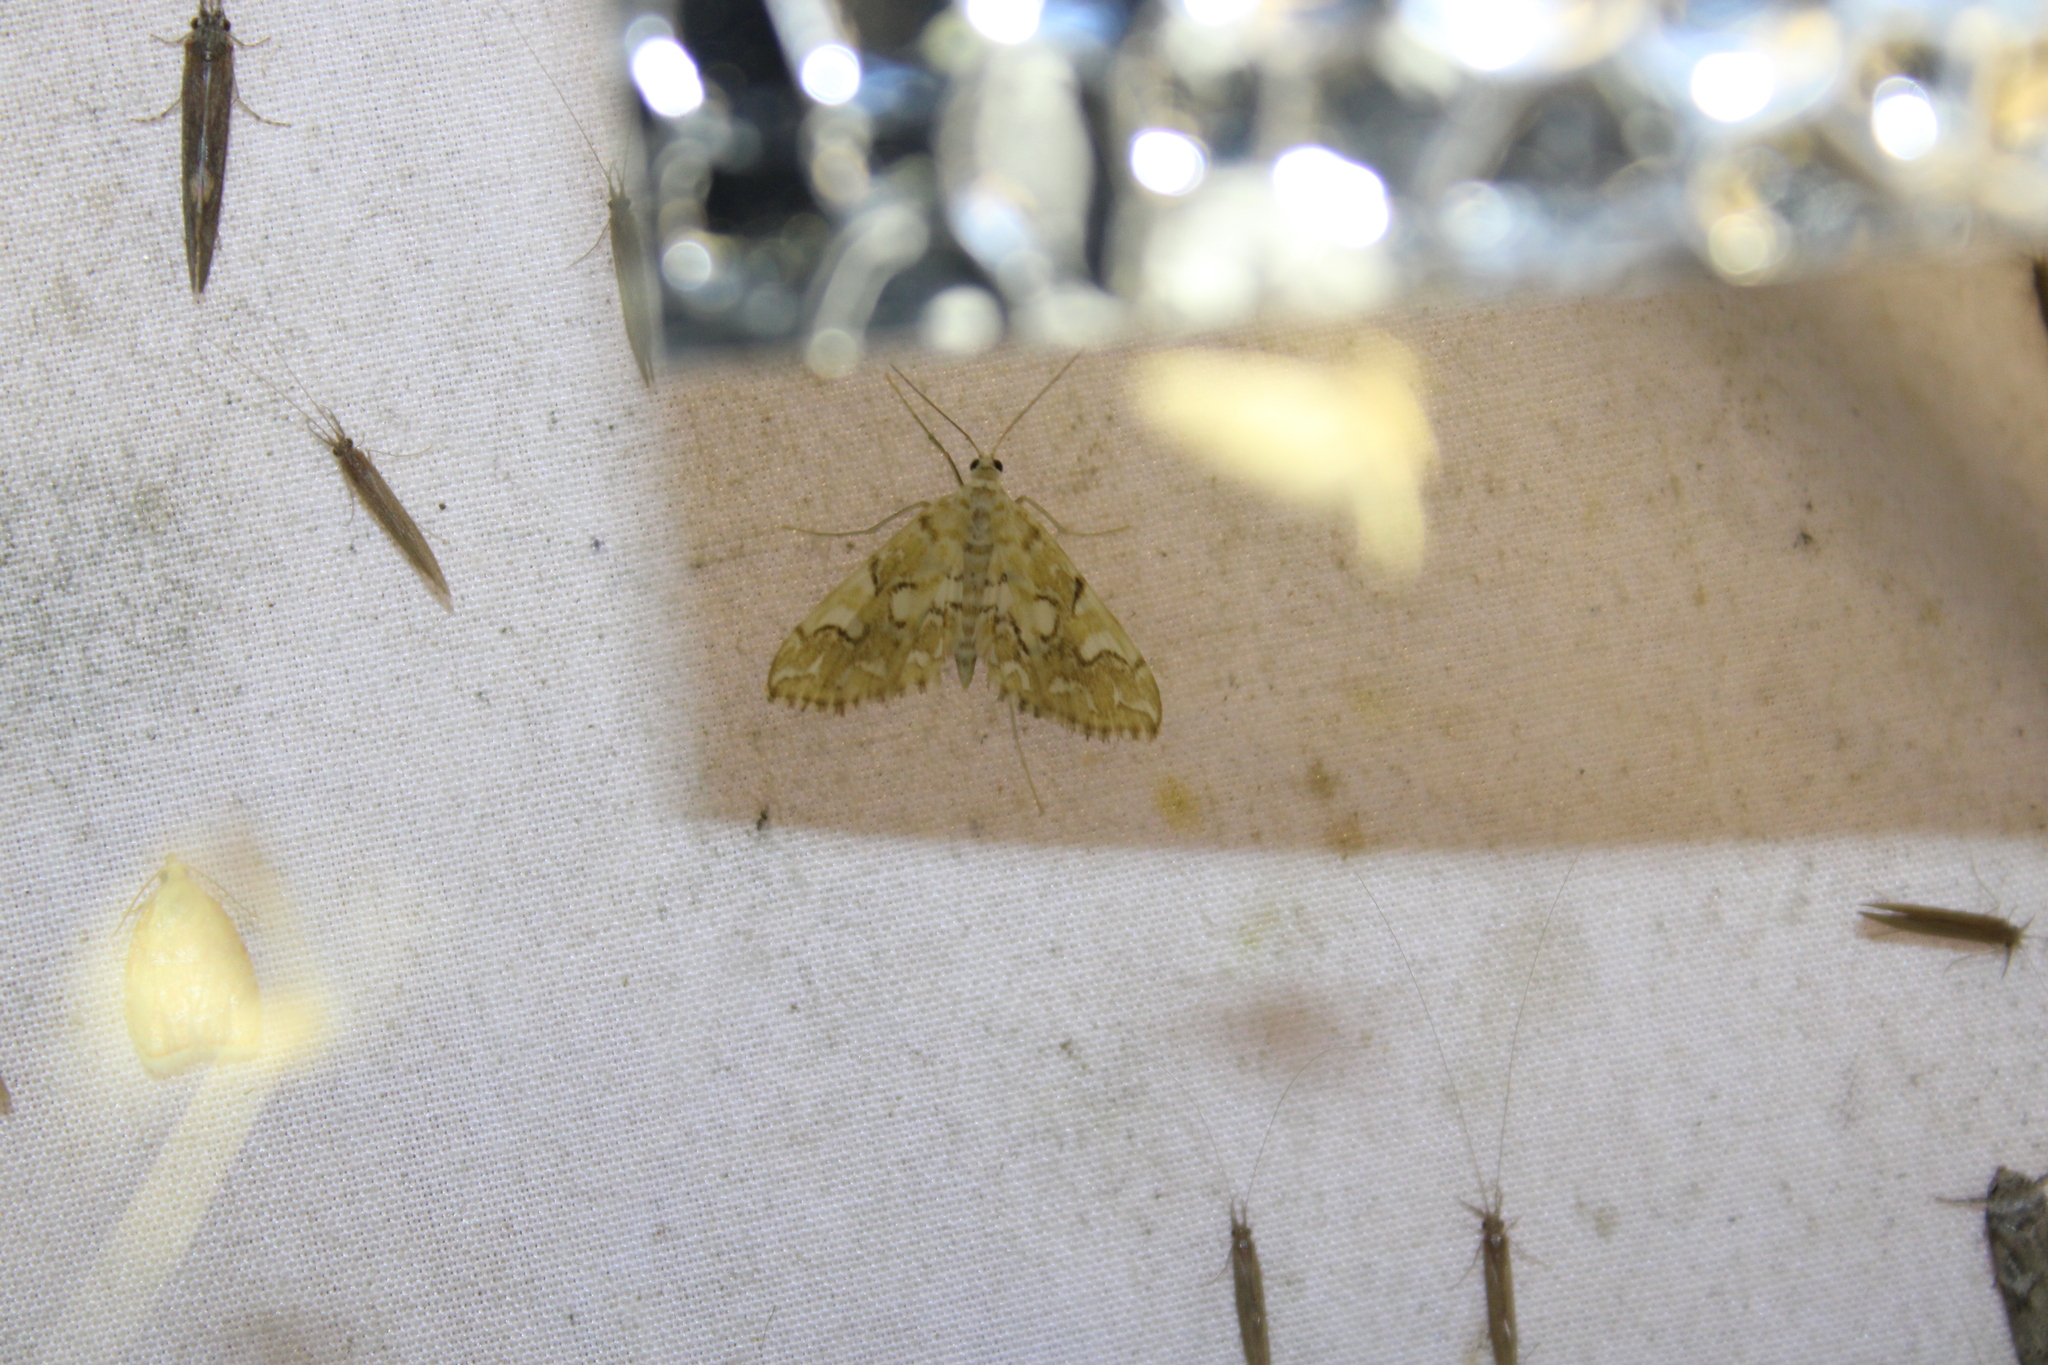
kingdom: Animalia
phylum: Arthropoda
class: Insecta
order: Lepidoptera
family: Crambidae
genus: Elophila
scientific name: Elophila icciusalis
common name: Pondside pyralid moth
